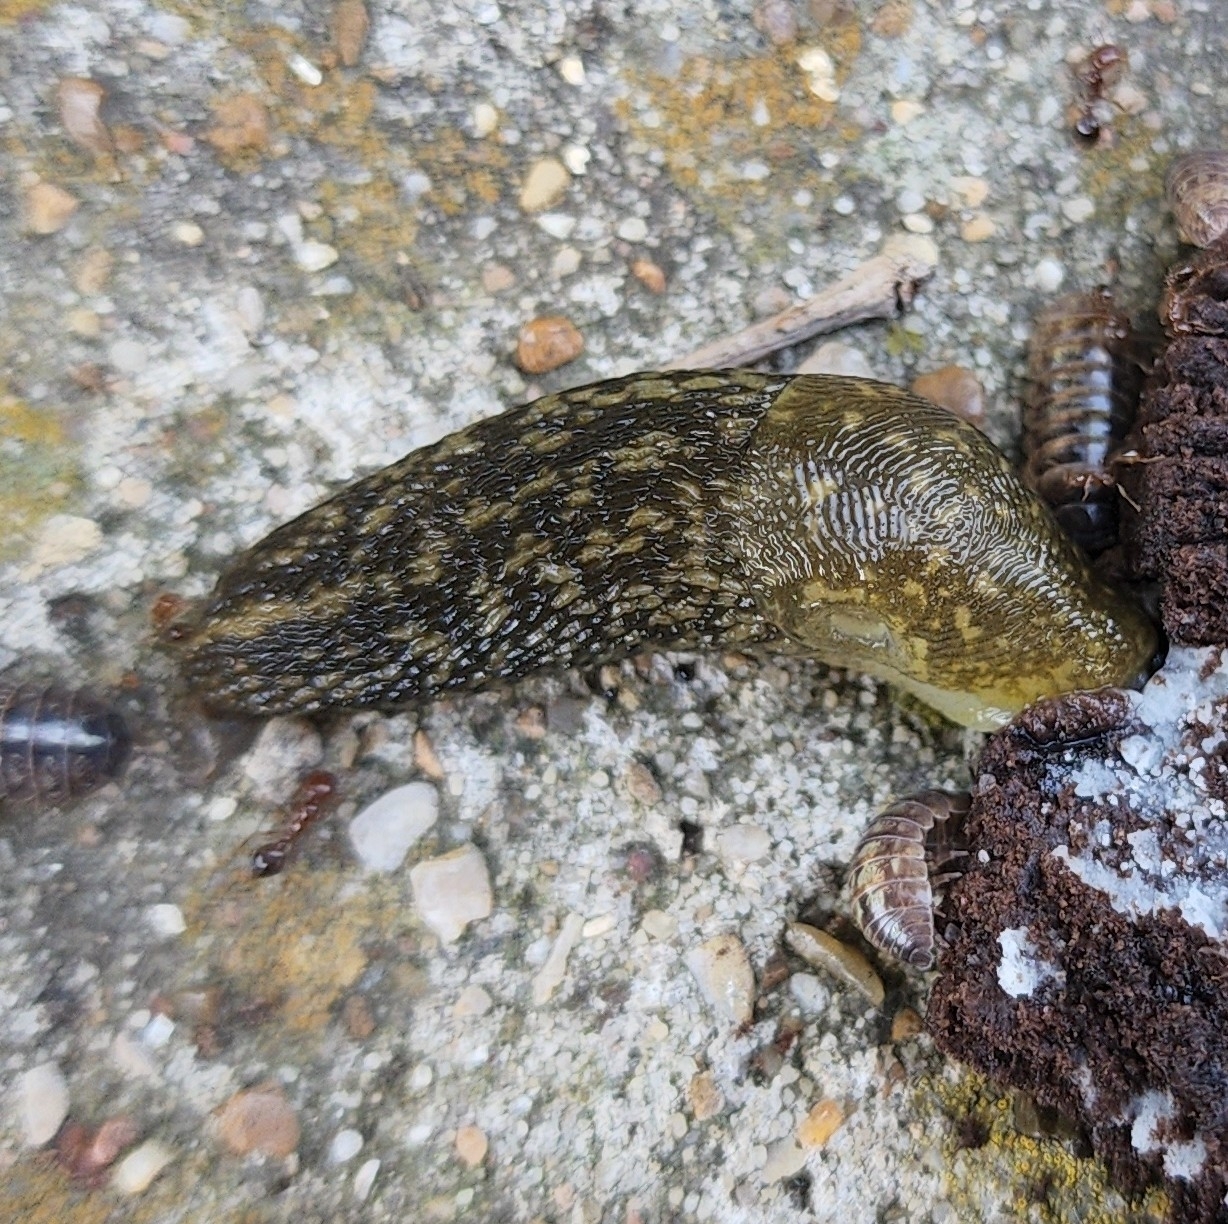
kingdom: Animalia
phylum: Mollusca
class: Gastropoda
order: Stylommatophora
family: Limacidae
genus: Limacus
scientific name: Limacus flavus
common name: Yellow gardenslug
